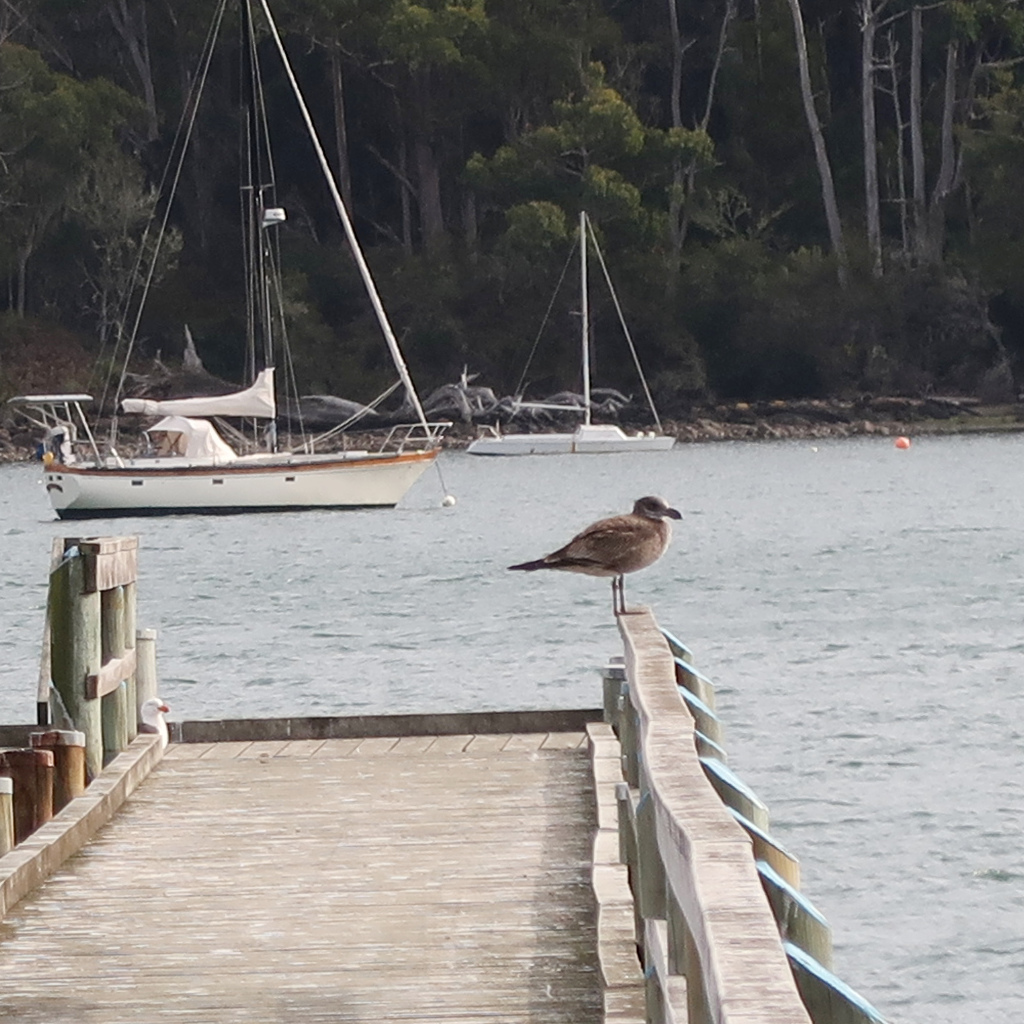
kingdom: Animalia
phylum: Chordata
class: Aves
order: Charadriiformes
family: Laridae
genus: Larus
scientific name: Larus pacificus
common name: Pacific gull
